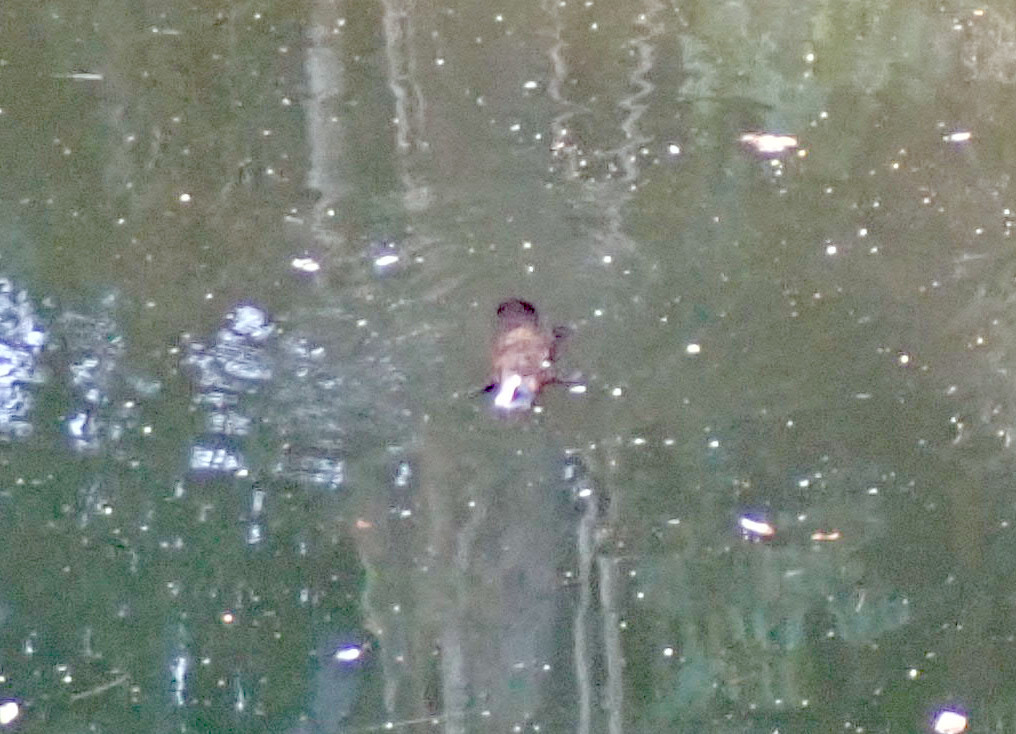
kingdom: Animalia
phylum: Chordata
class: Mammalia
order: Monotremata
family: Ornithorhynchidae
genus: Ornithorhynchus
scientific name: Ornithorhynchus anatinus
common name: Platypus
